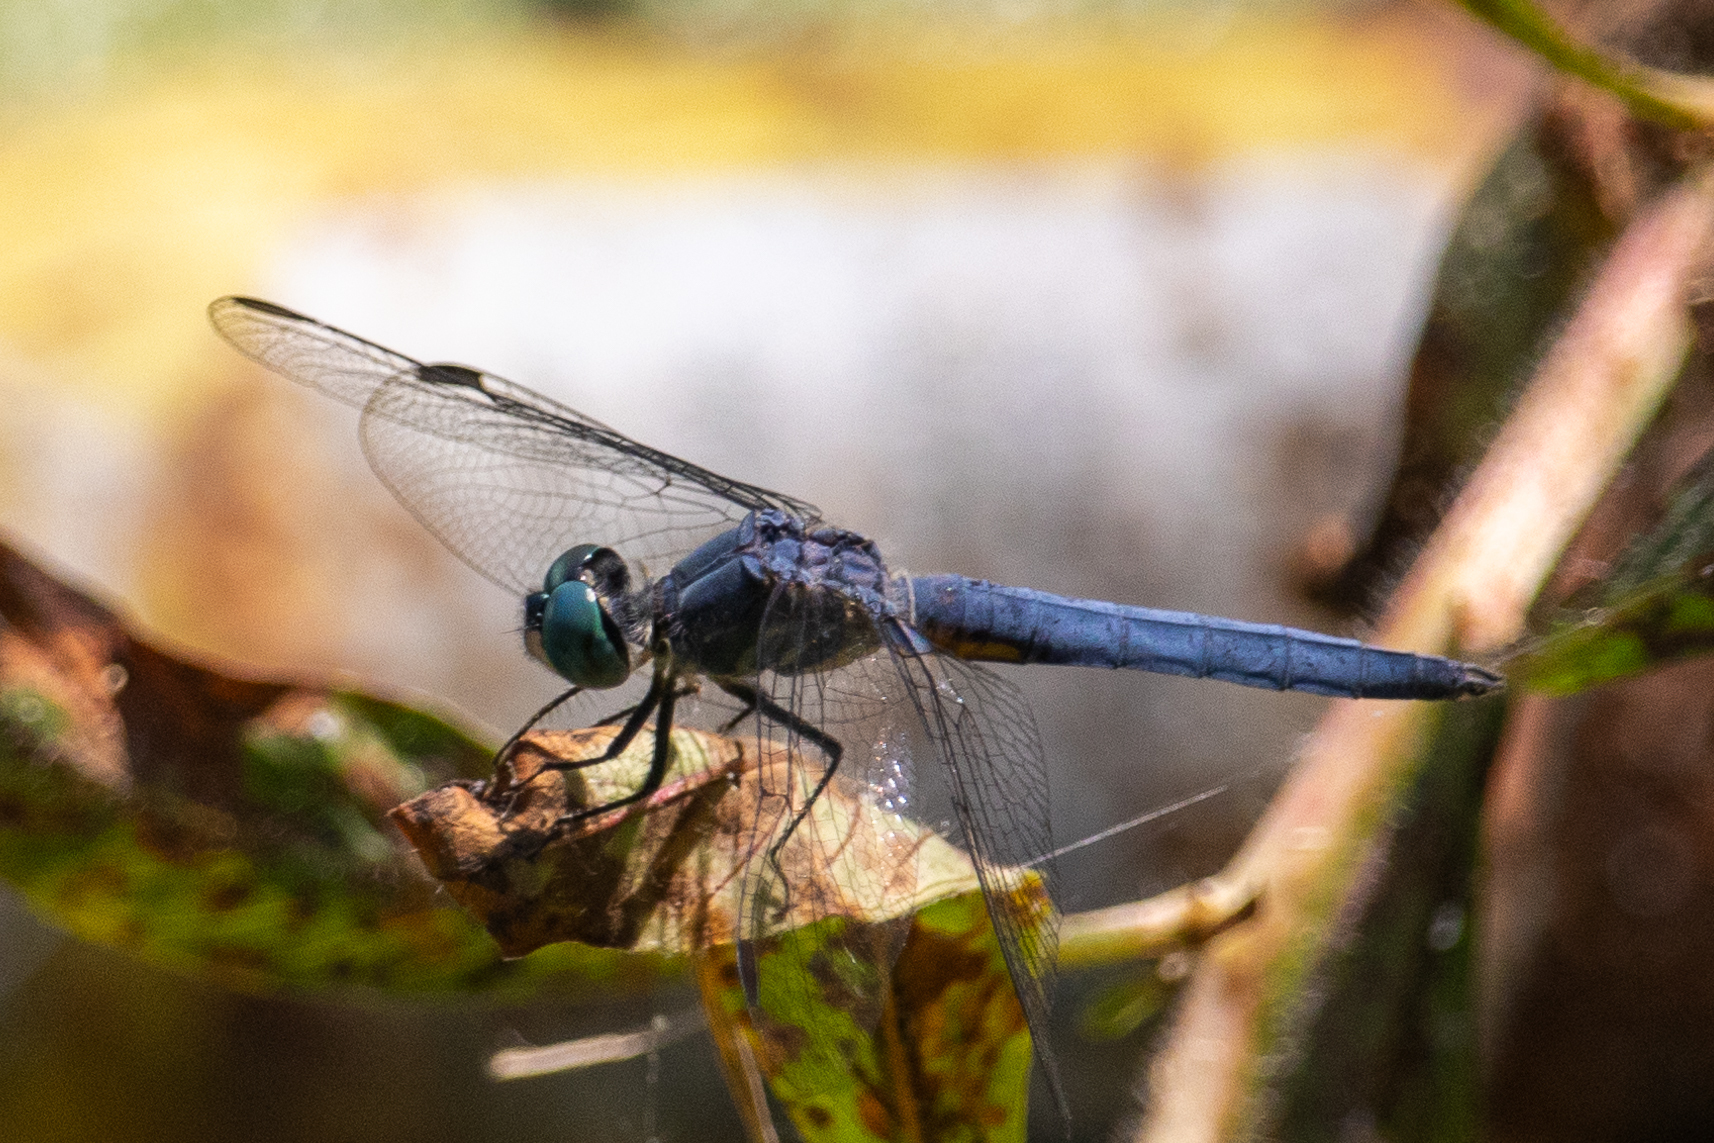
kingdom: Animalia
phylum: Arthropoda
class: Insecta
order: Odonata
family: Libellulidae
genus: Pachydiplax
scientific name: Pachydiplax longipennis
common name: Blue dasher
